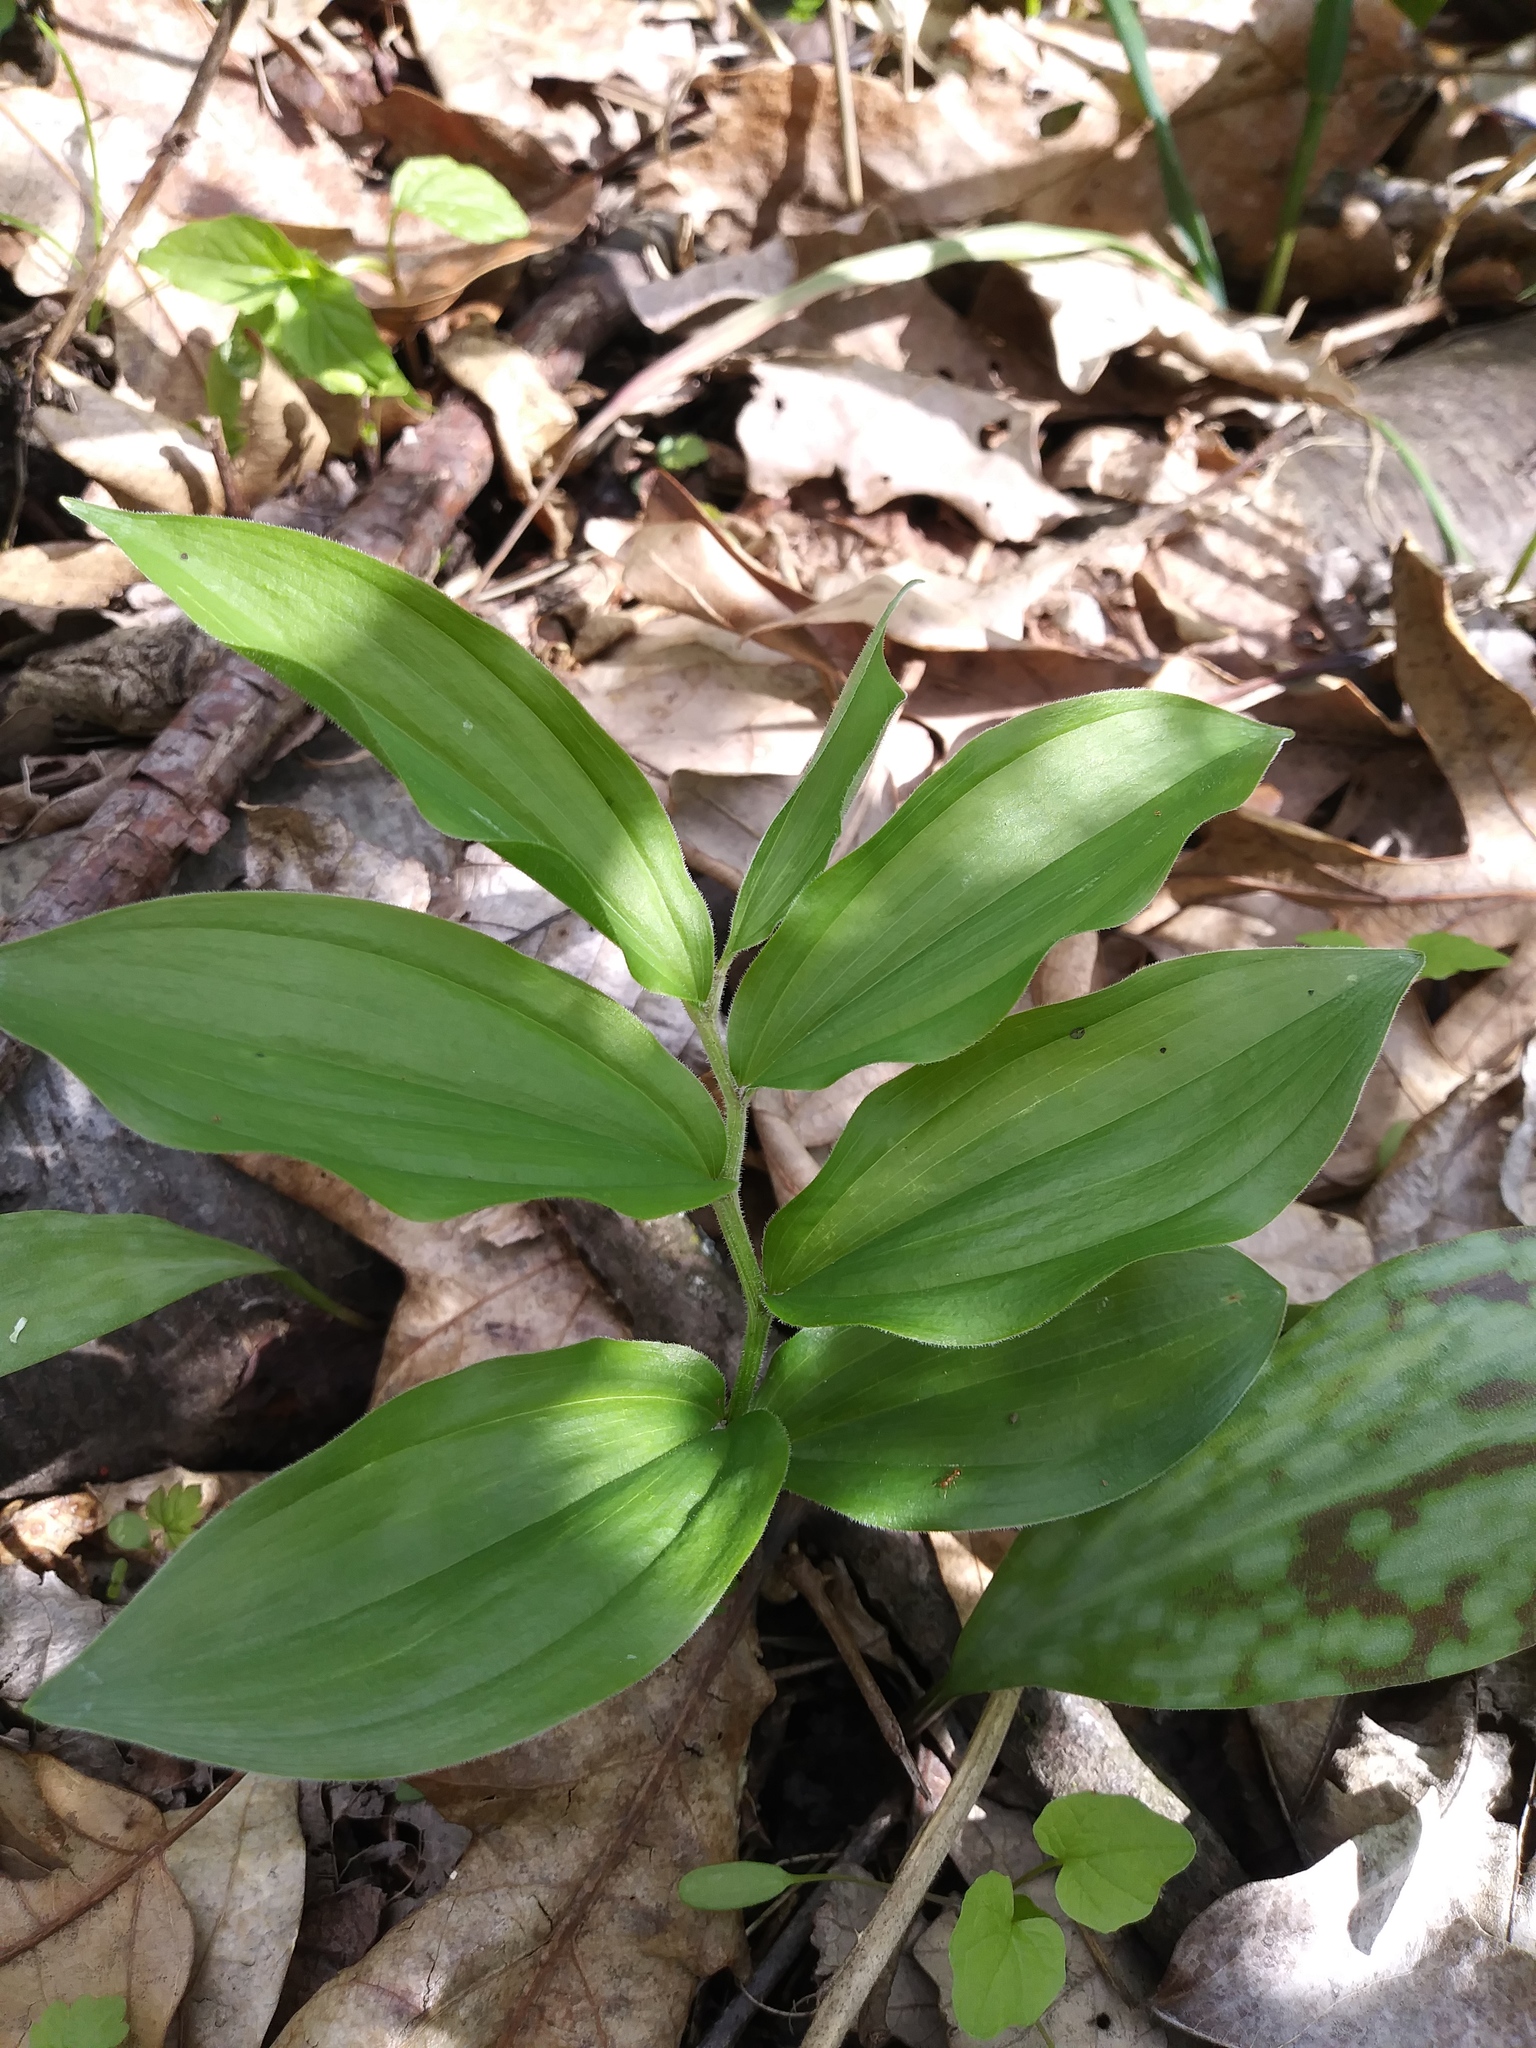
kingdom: Plantae
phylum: Tracheophyta
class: Liliopsida
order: Asparagales
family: Asparagaceae
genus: Maianthemum
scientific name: Maianthemum racemosum
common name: False spikenard
